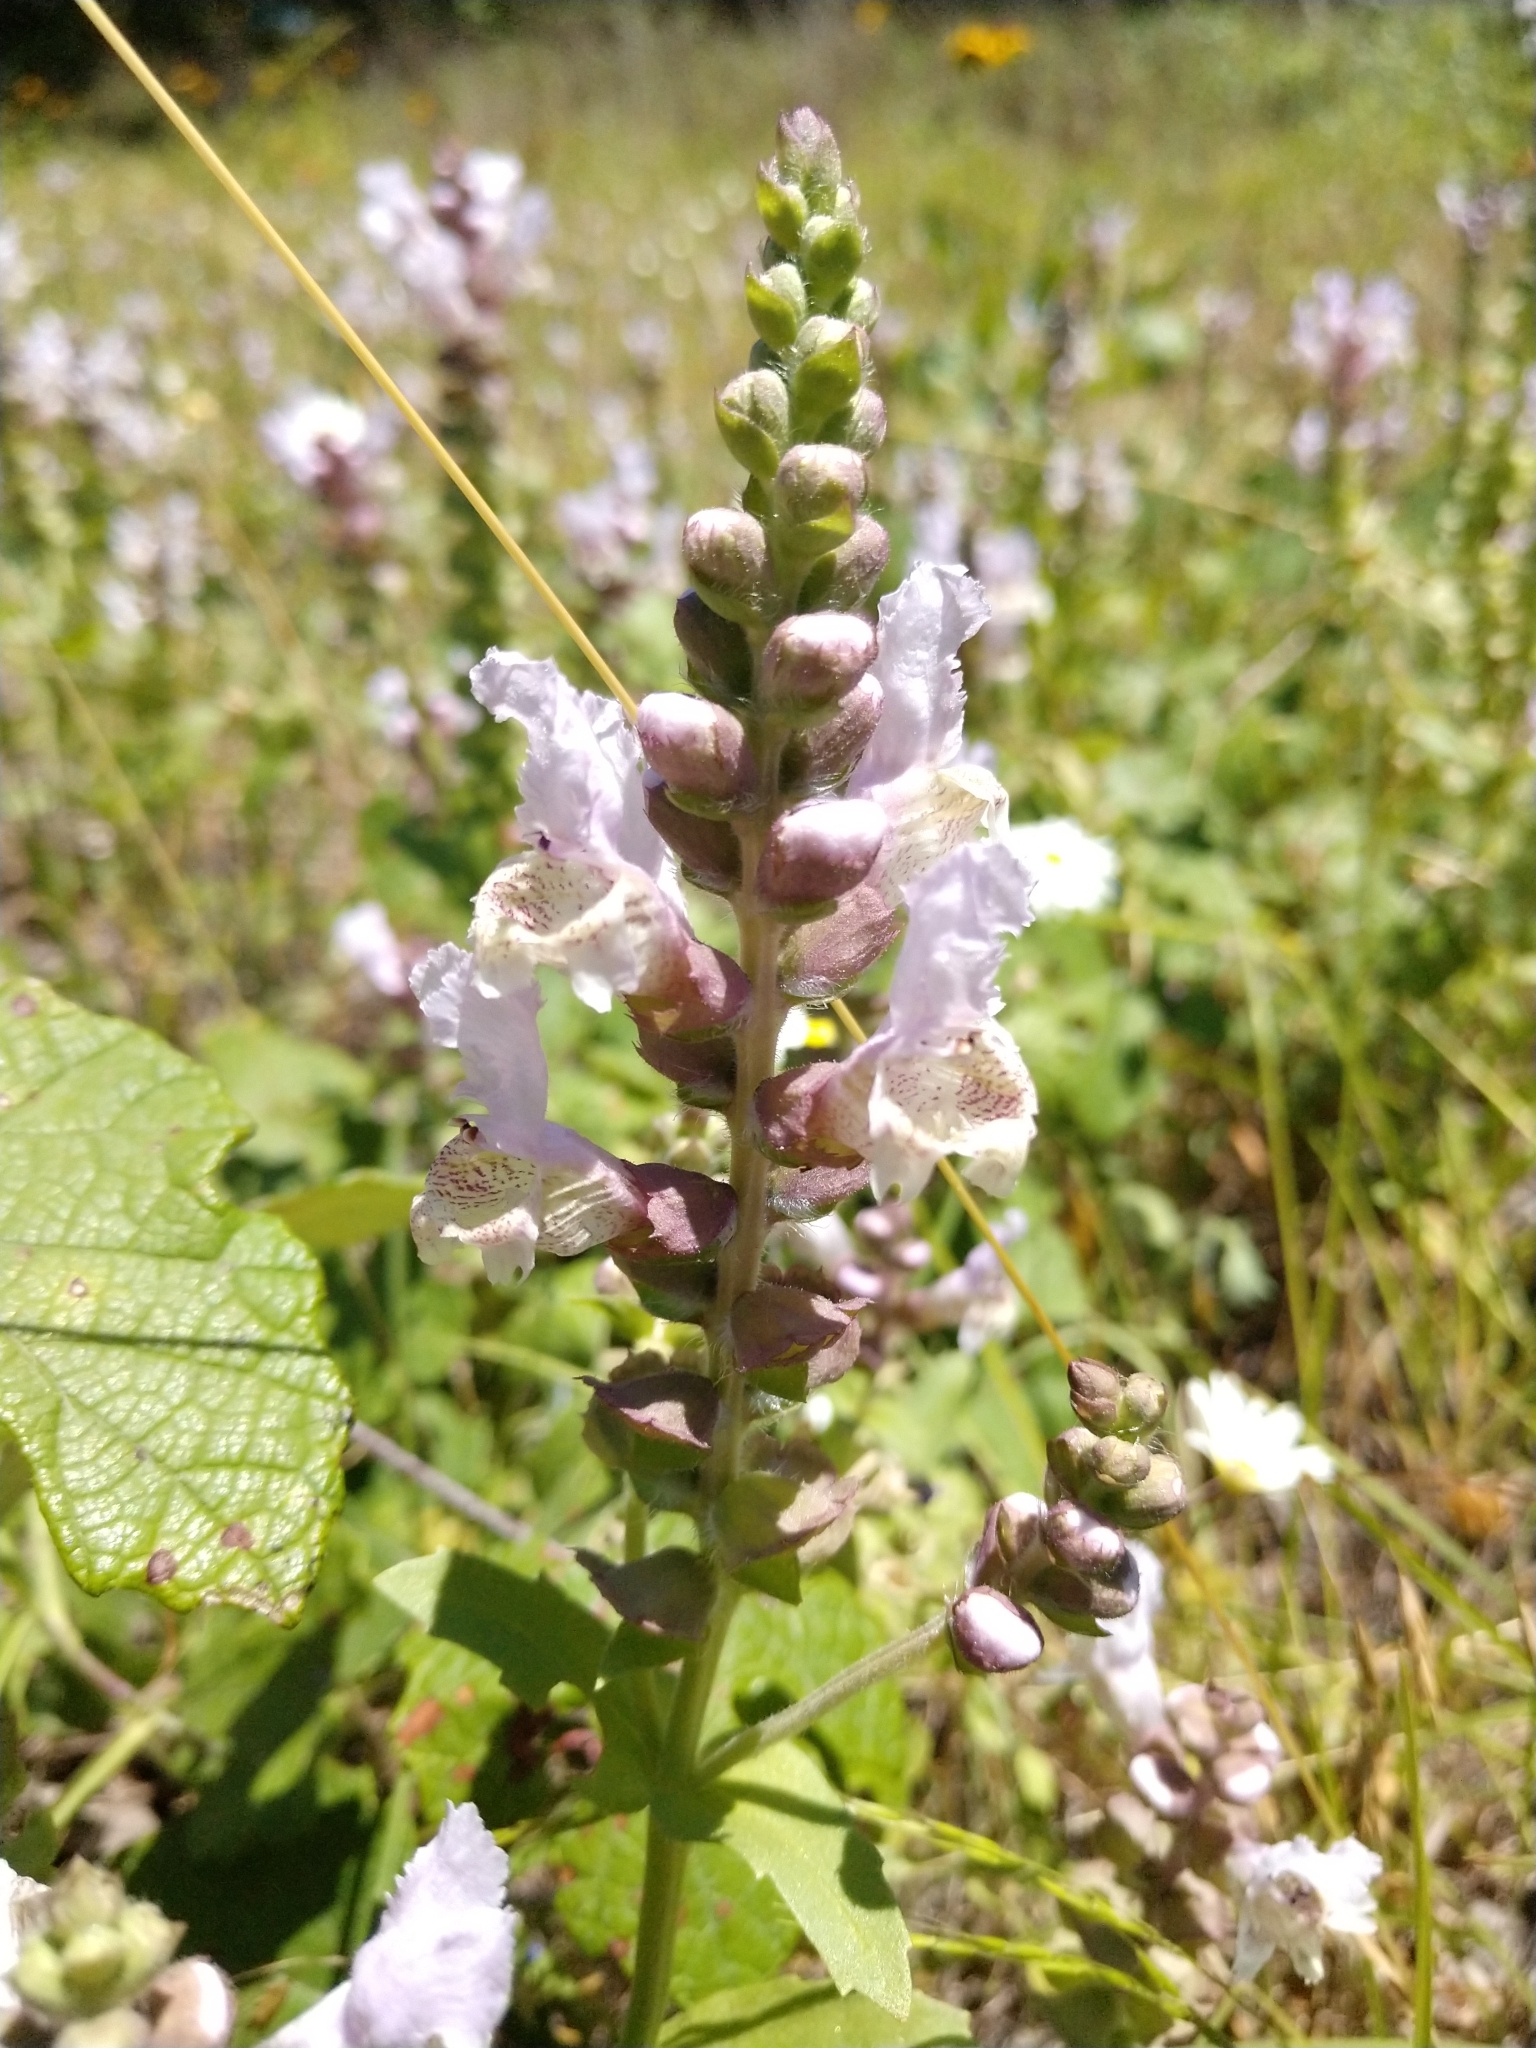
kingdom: Plantae
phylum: Tracheophyta
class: Magnoliopsida
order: Lamiales
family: Lamiaceae
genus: Brazoria
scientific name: Brazoria truncata
